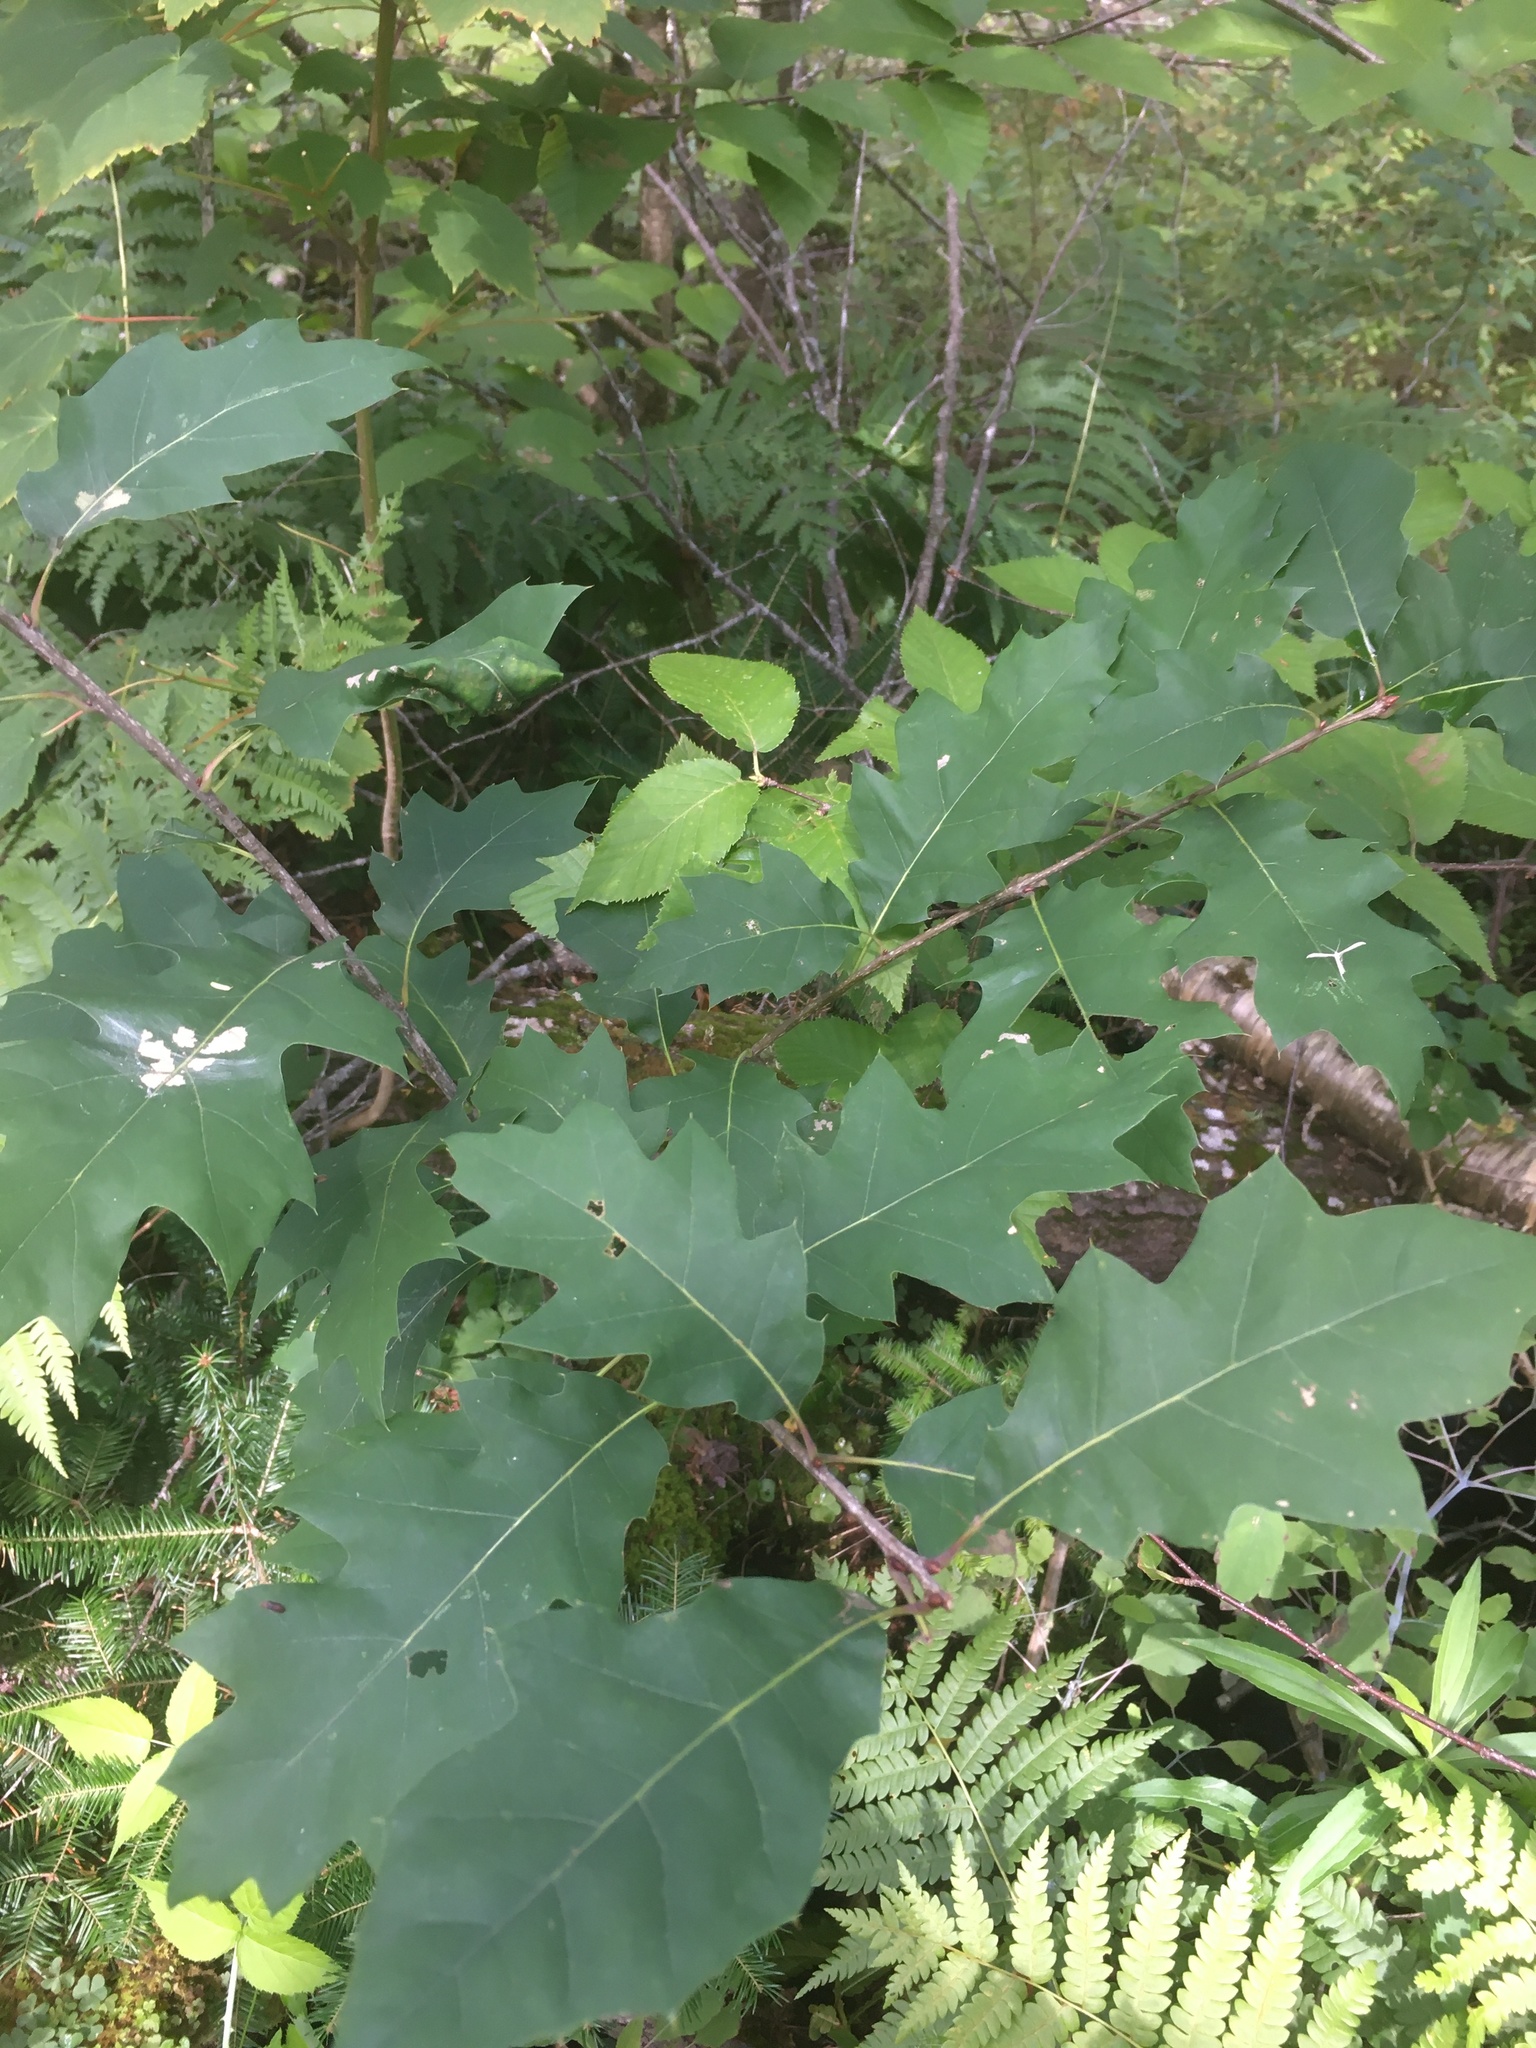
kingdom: Plantae
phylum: Tracheophyta
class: Magnoliopsida
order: Fagales
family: Fagaceae
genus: Quercus
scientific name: Quercus rubra
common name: Red oak
